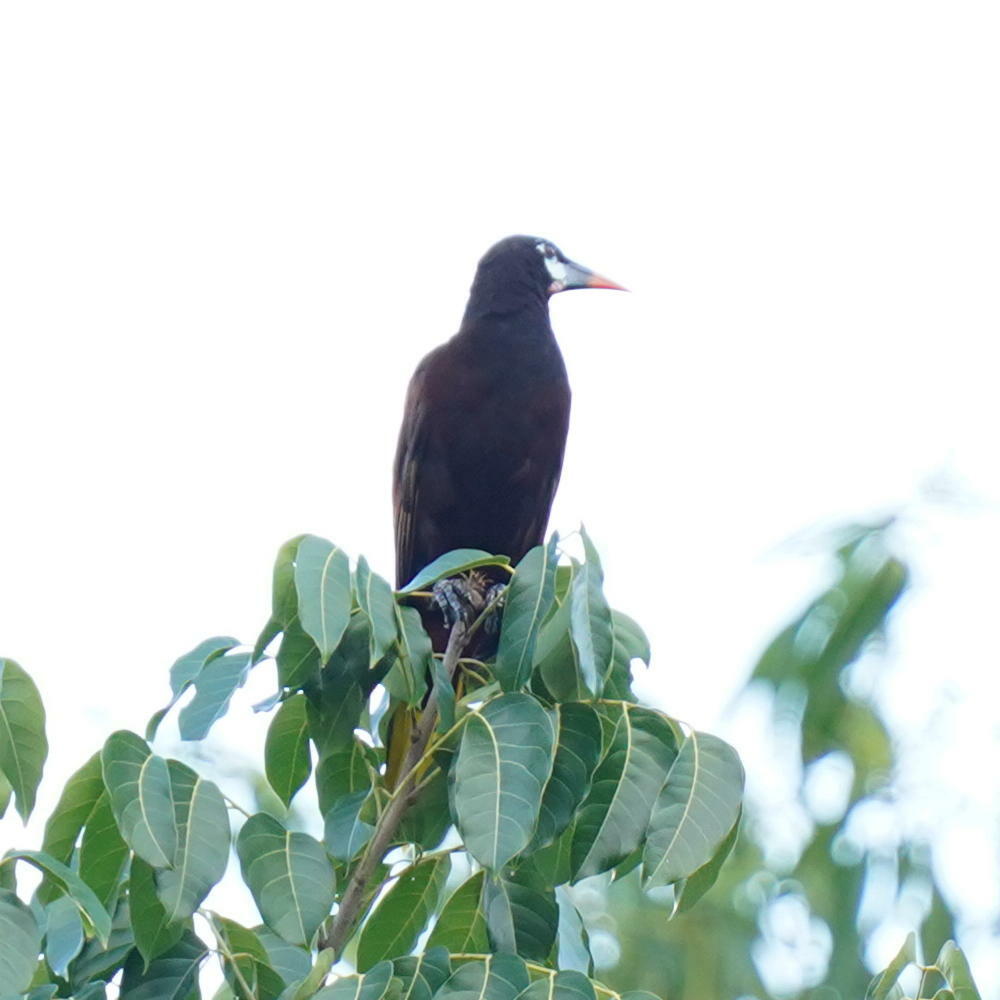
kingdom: Animalia
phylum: Chordata
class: Aves
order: Passeriformes
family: Icteridae
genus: Psarocolius
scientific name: Psarocolius montezuma
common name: Montezuma oropendola
